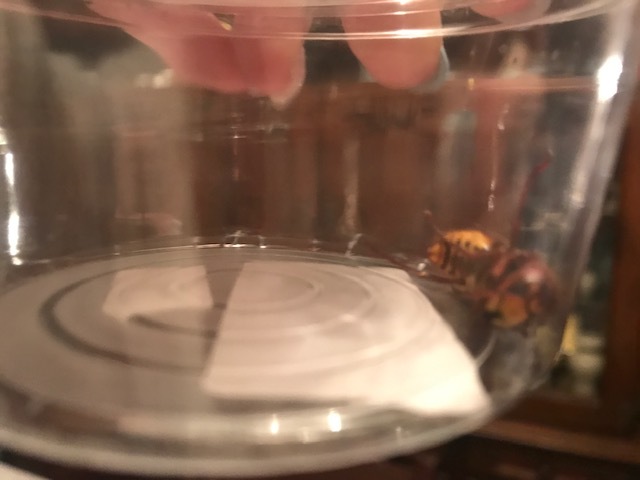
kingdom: Animalia
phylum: Arthropoda
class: Insecta
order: Hymenoptera
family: Vespidae
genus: Vespa
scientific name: Vespa crabro
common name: Hornet
